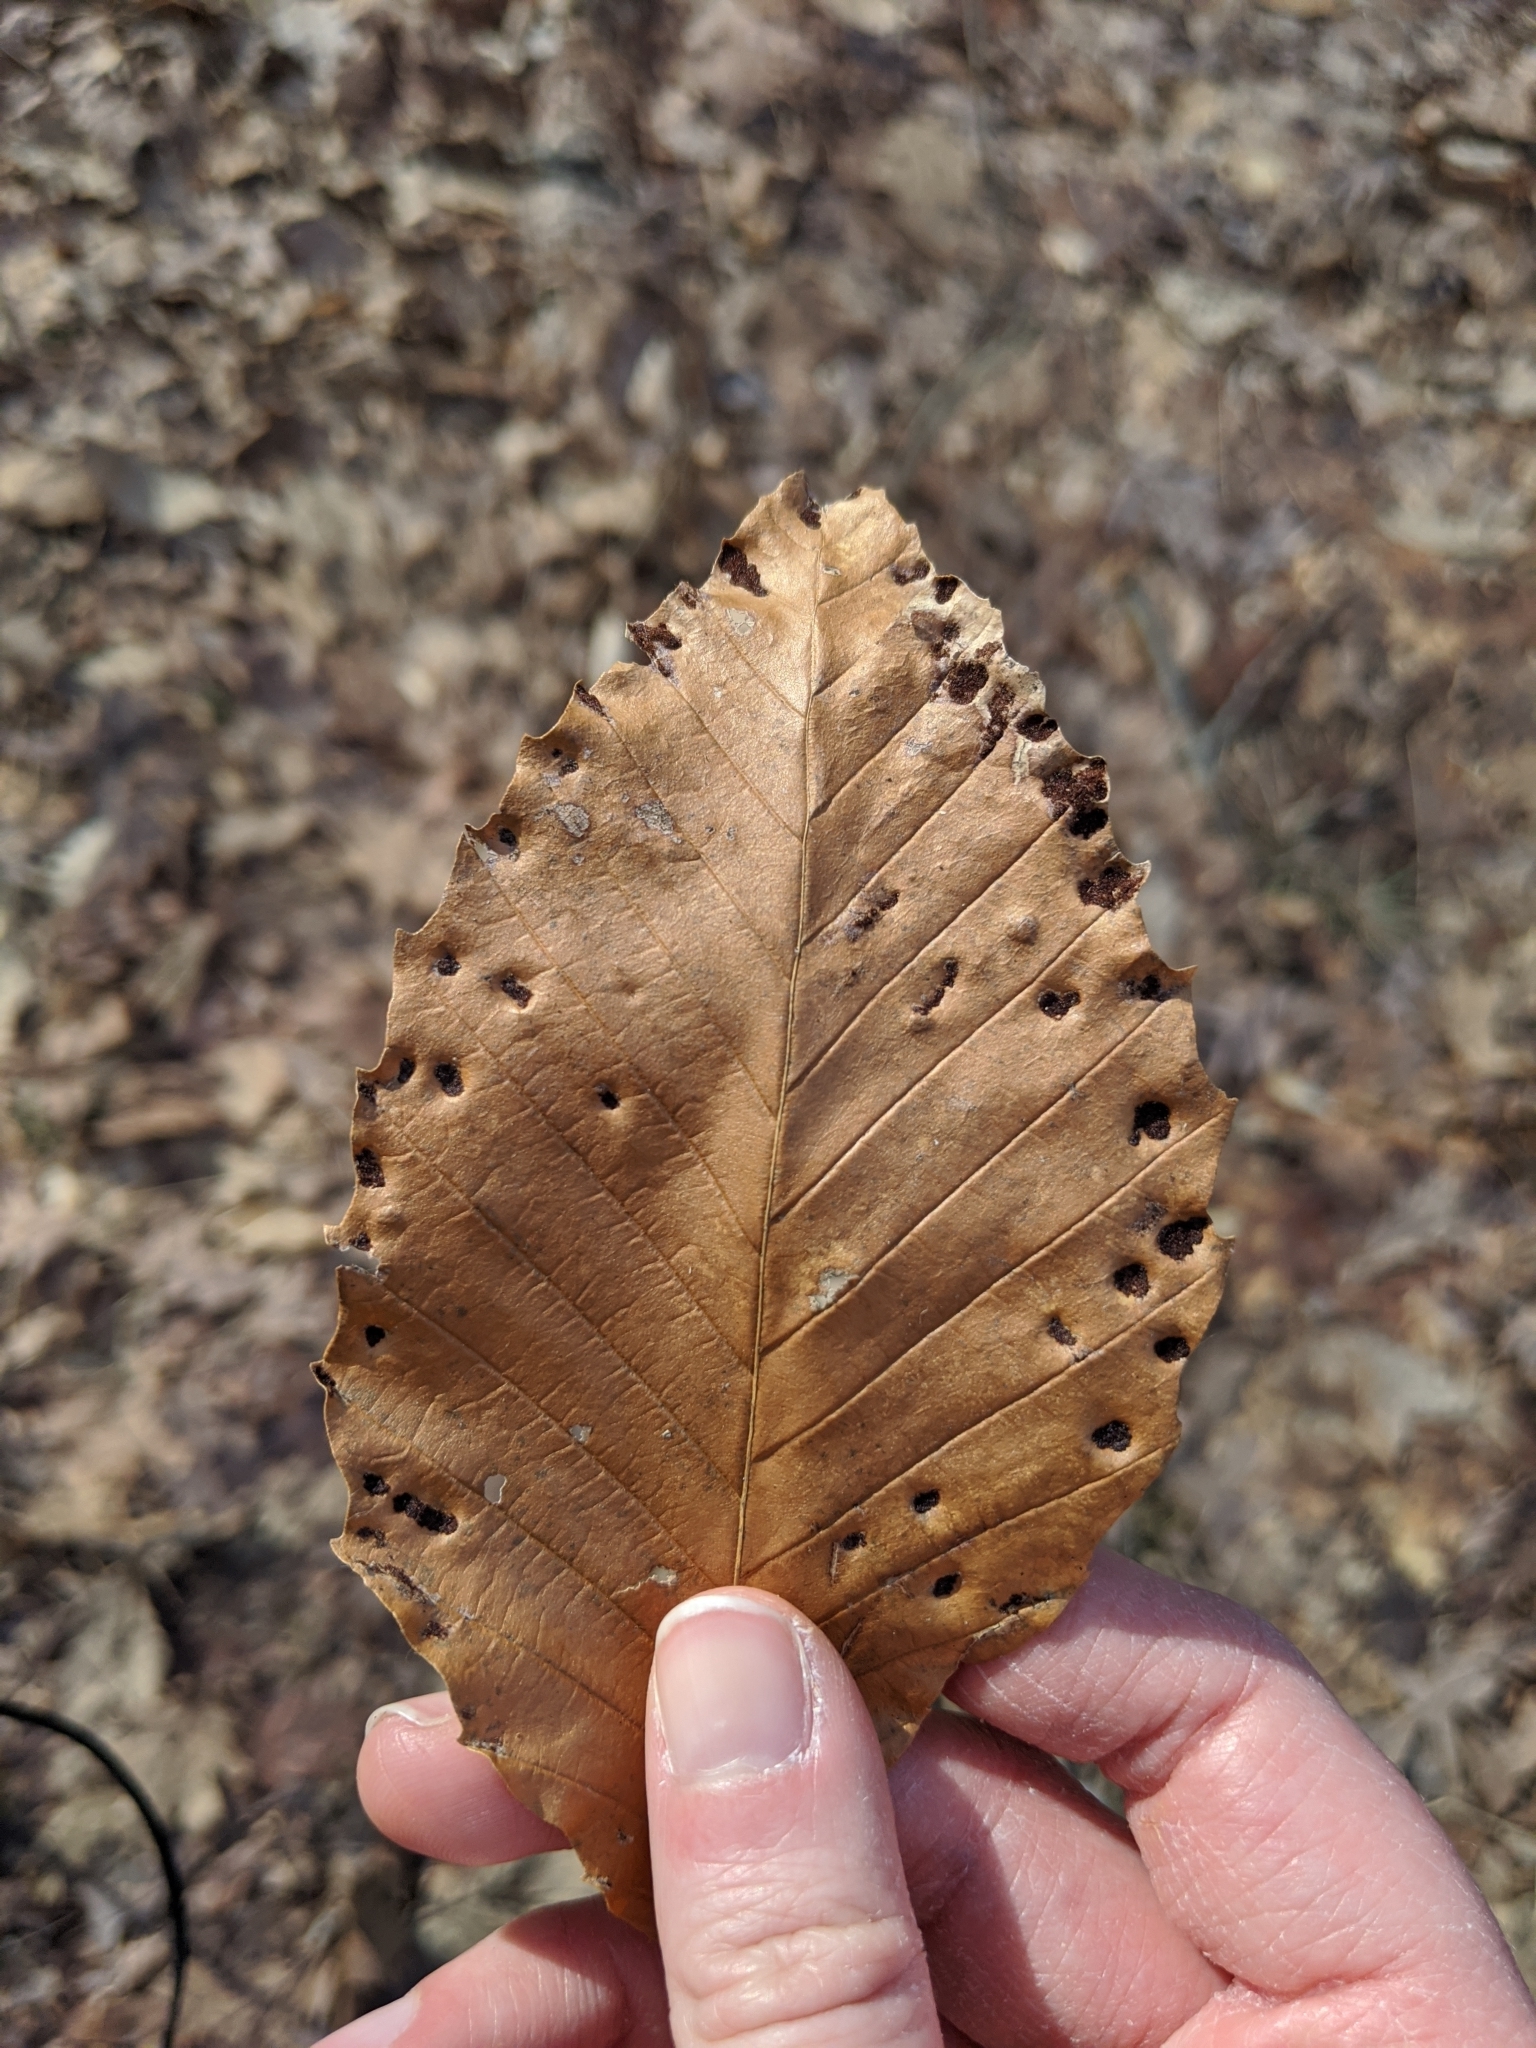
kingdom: Plantae
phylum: Tracheophyta
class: Magnoliopsida
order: Fagales
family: Fagaceae
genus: Fagus
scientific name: Fagus grandifolia
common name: American beech
